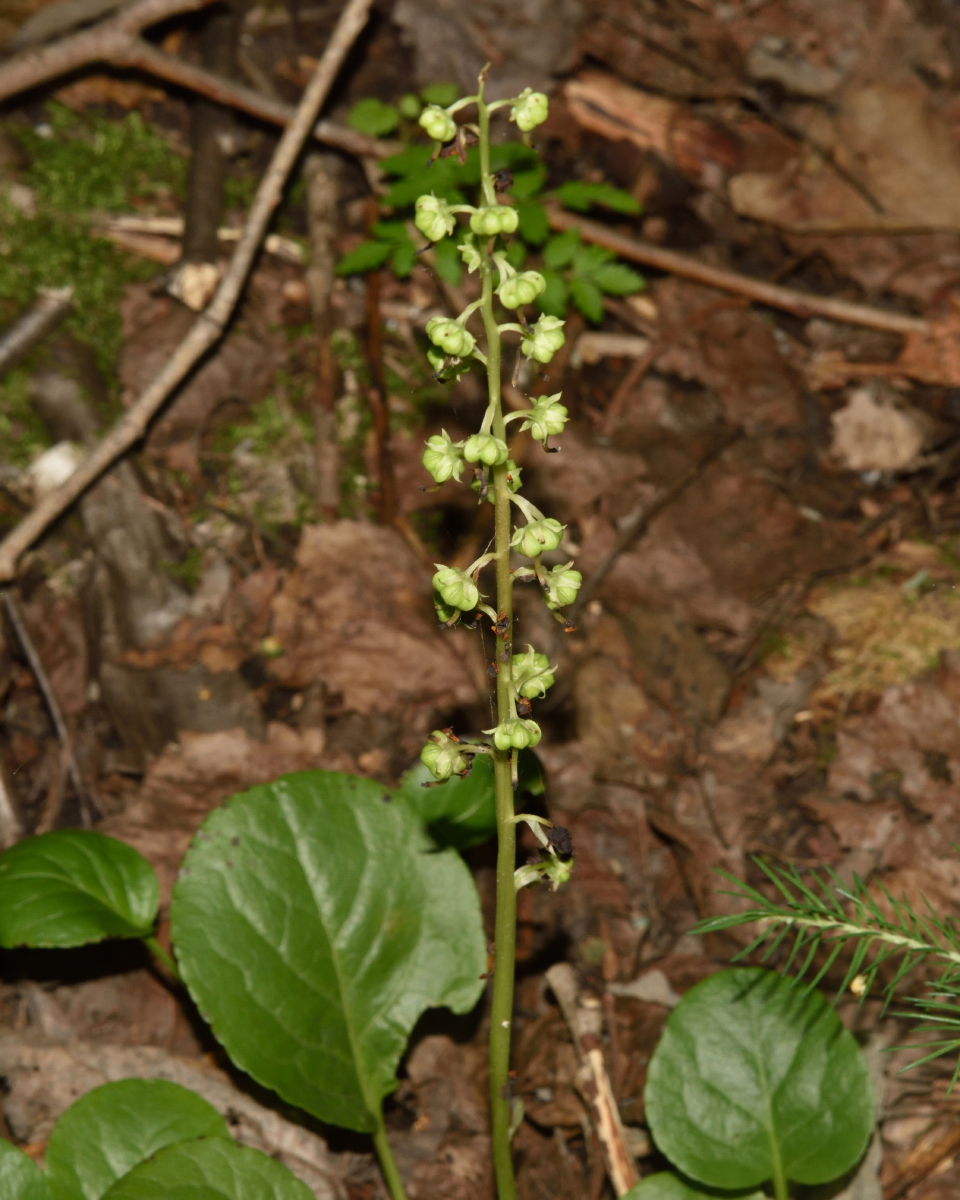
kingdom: Plantae
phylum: Tracheophyta
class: Magnoliopsida
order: Ericales
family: Ericaceae
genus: Pyrola
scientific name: Pyrola rotundifolia
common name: Round-leaved wintergreen
